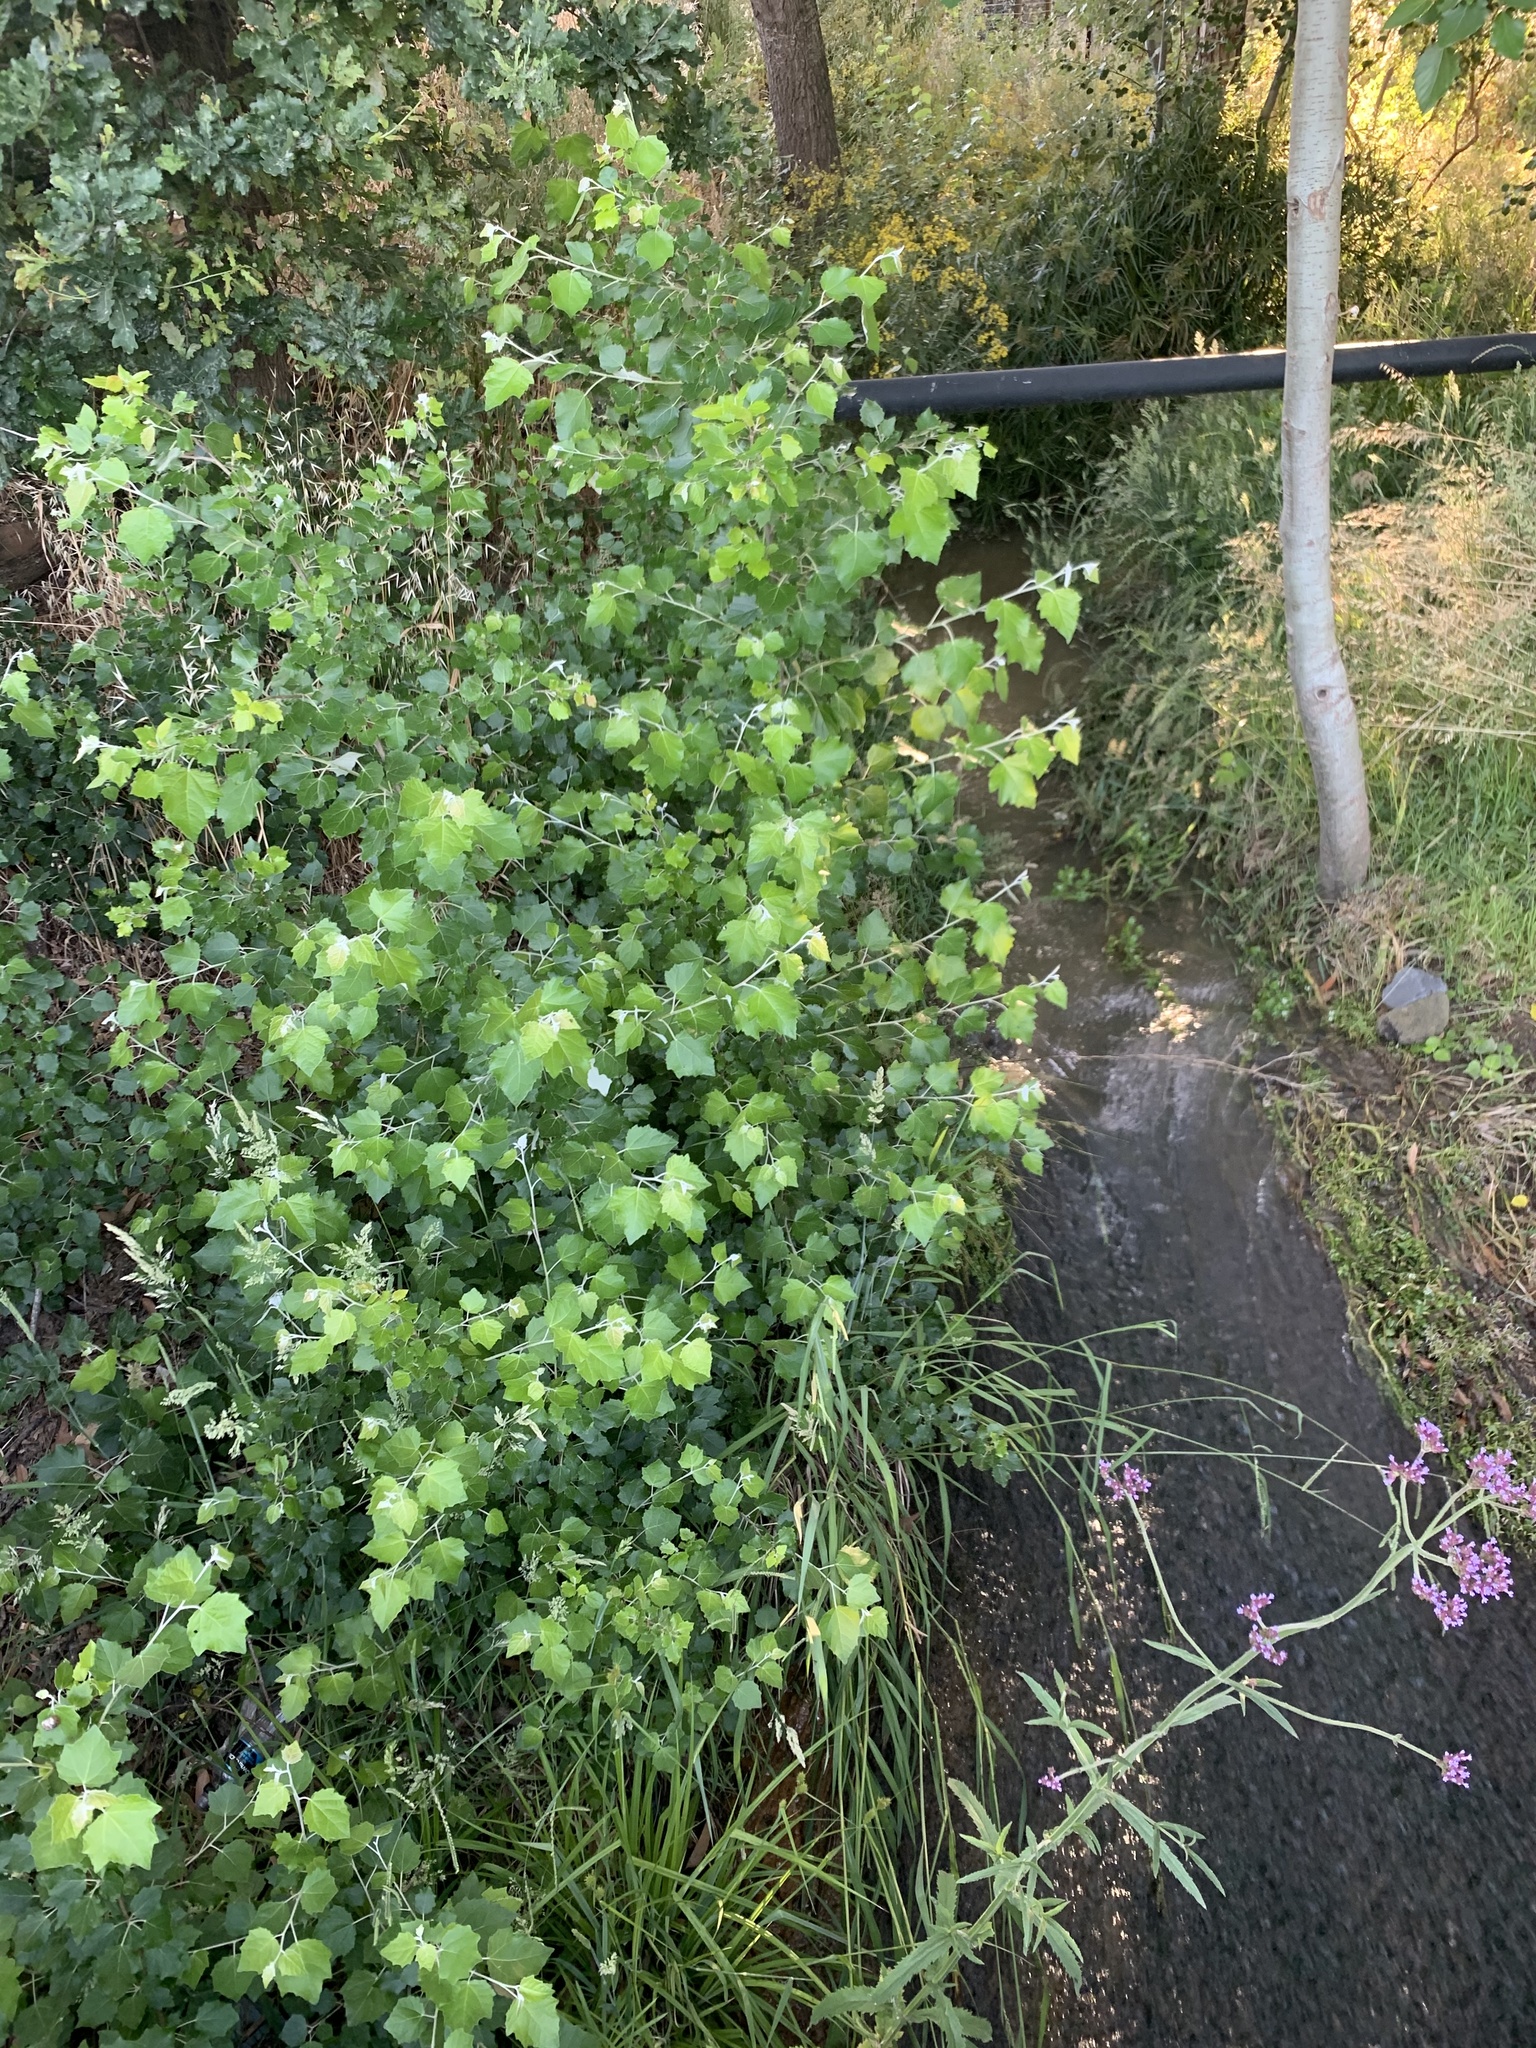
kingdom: Plantae
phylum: Tracheophyta
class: Magnoliopsida
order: Malpighiales
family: Salicaceae
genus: Populus
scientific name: Populus canescens
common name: Gray poplar
